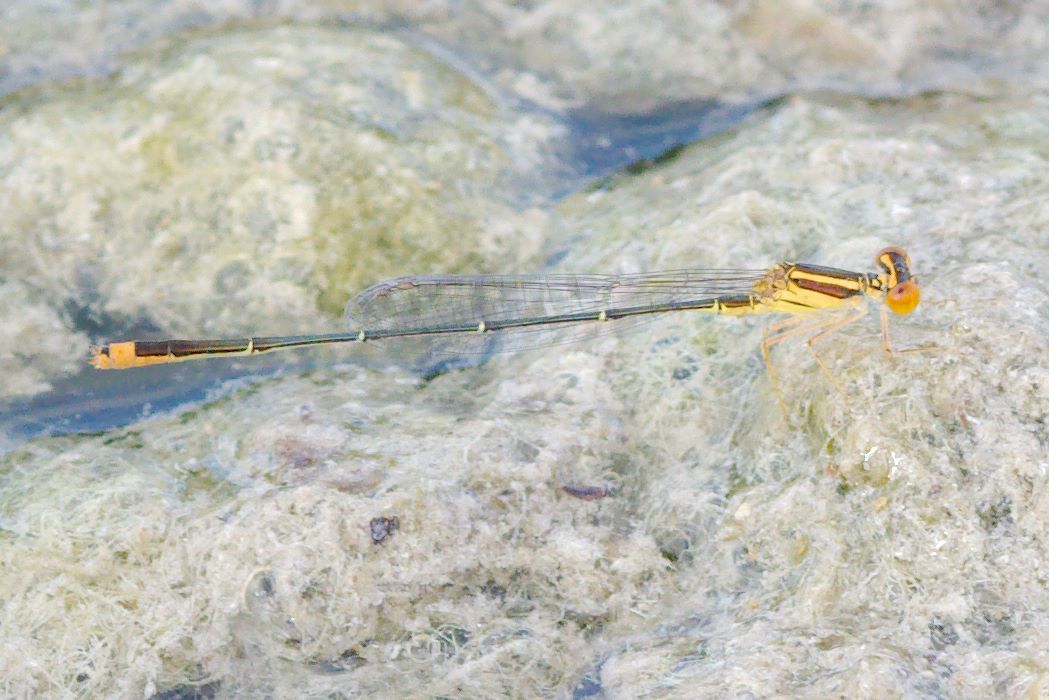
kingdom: Animalia
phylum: Arthropoda
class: Insecta
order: Odonata
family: Coenagrionidae
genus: Enallagma
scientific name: Enallagma pollutum
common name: Florida bluet
